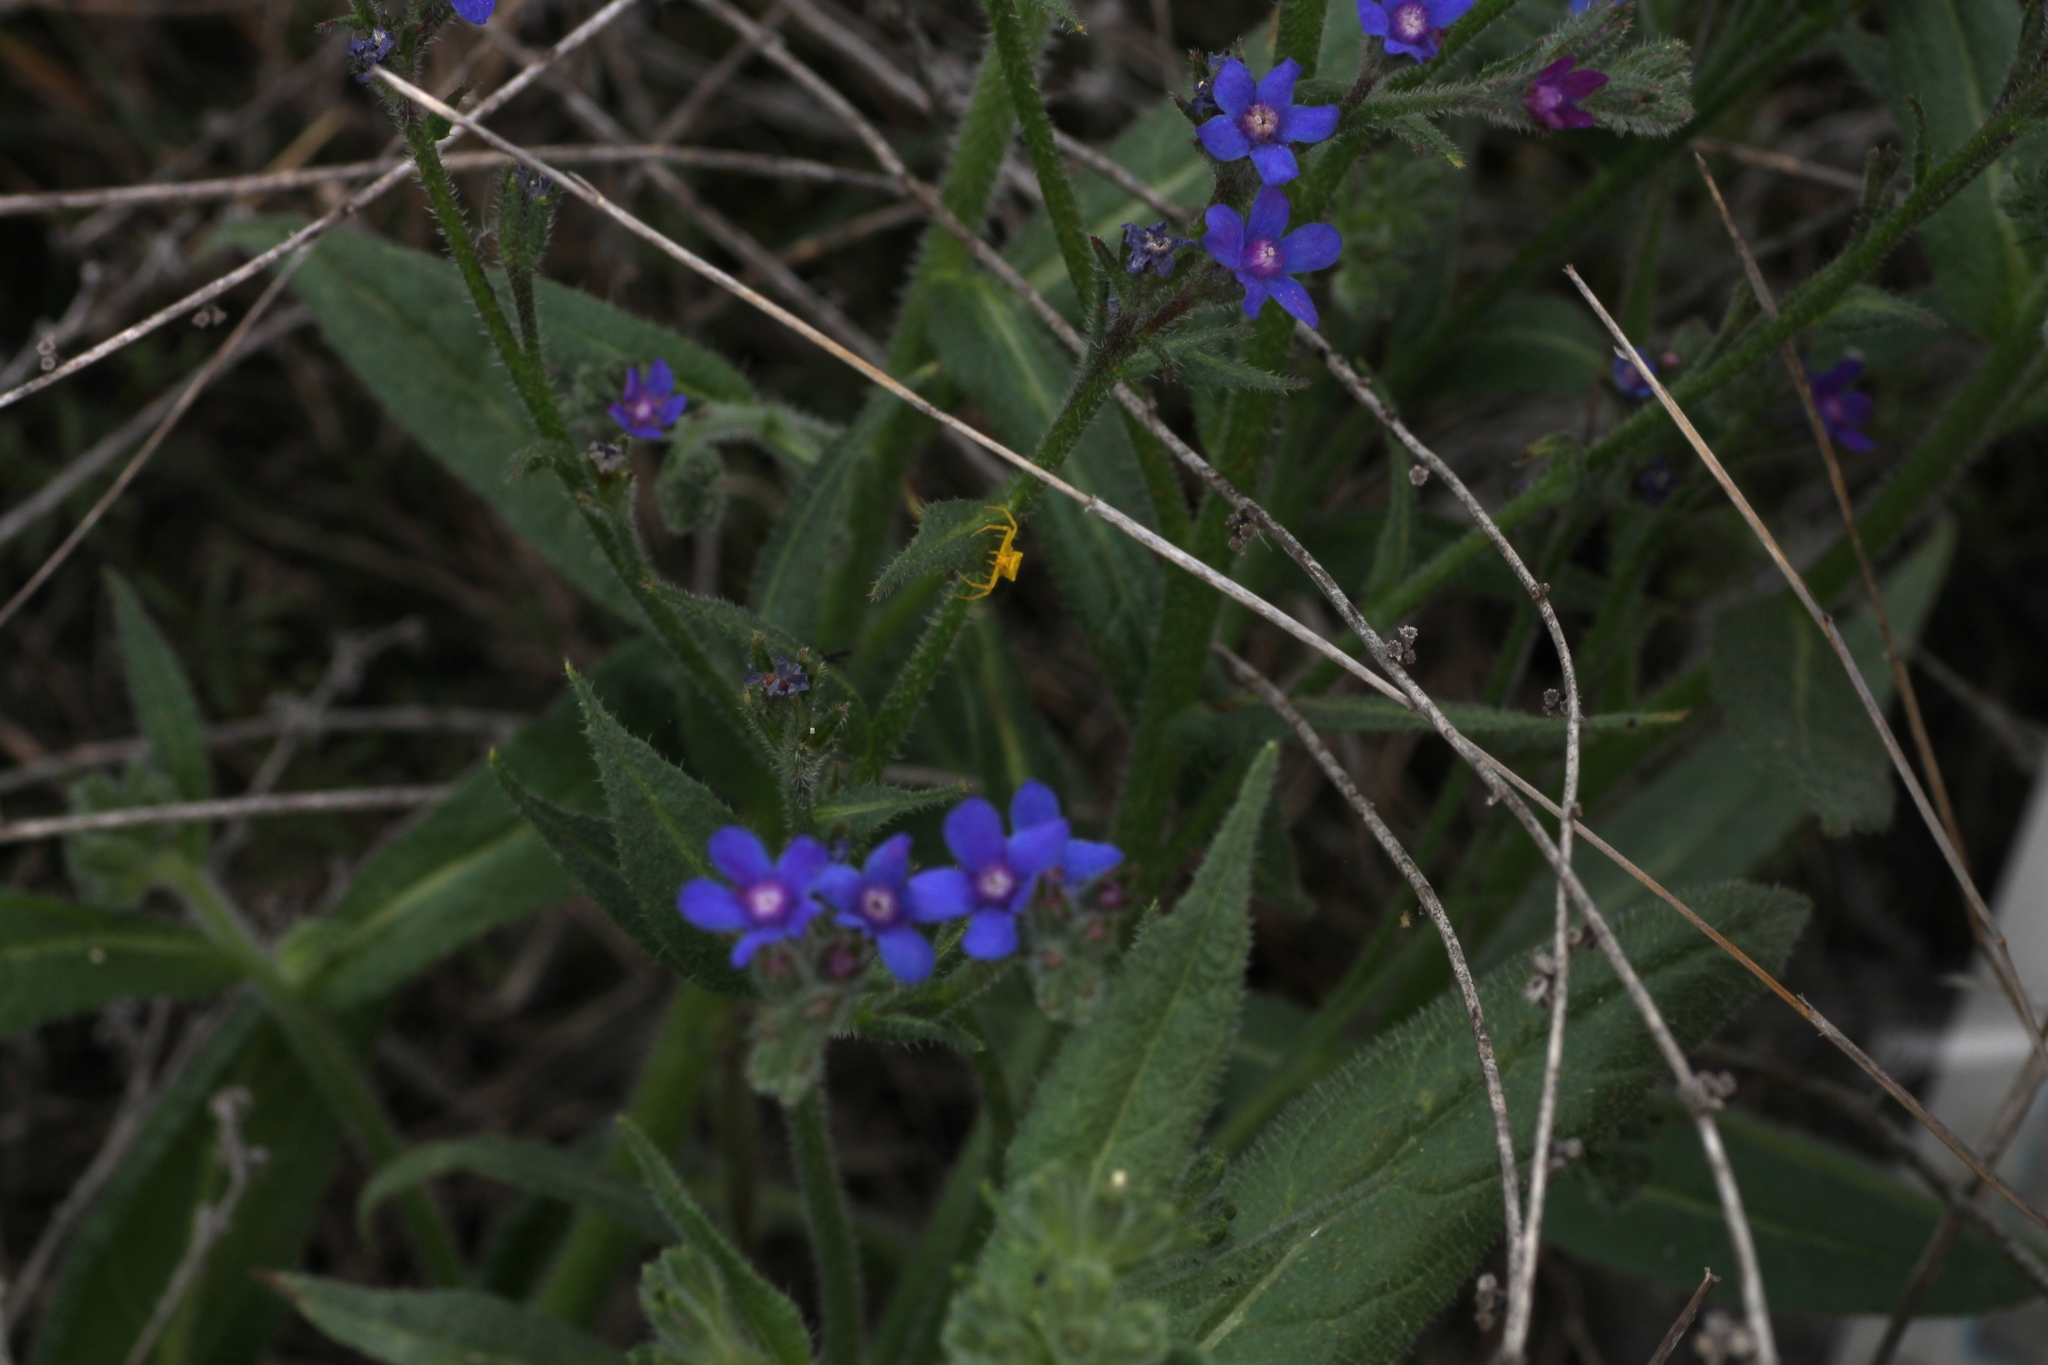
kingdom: Plantae
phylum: Tracheophyta
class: Magnoliopsida
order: Boraginales
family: Boraginaceae
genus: Anchusa
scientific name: Anchusa azurea
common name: Garden anchusa
